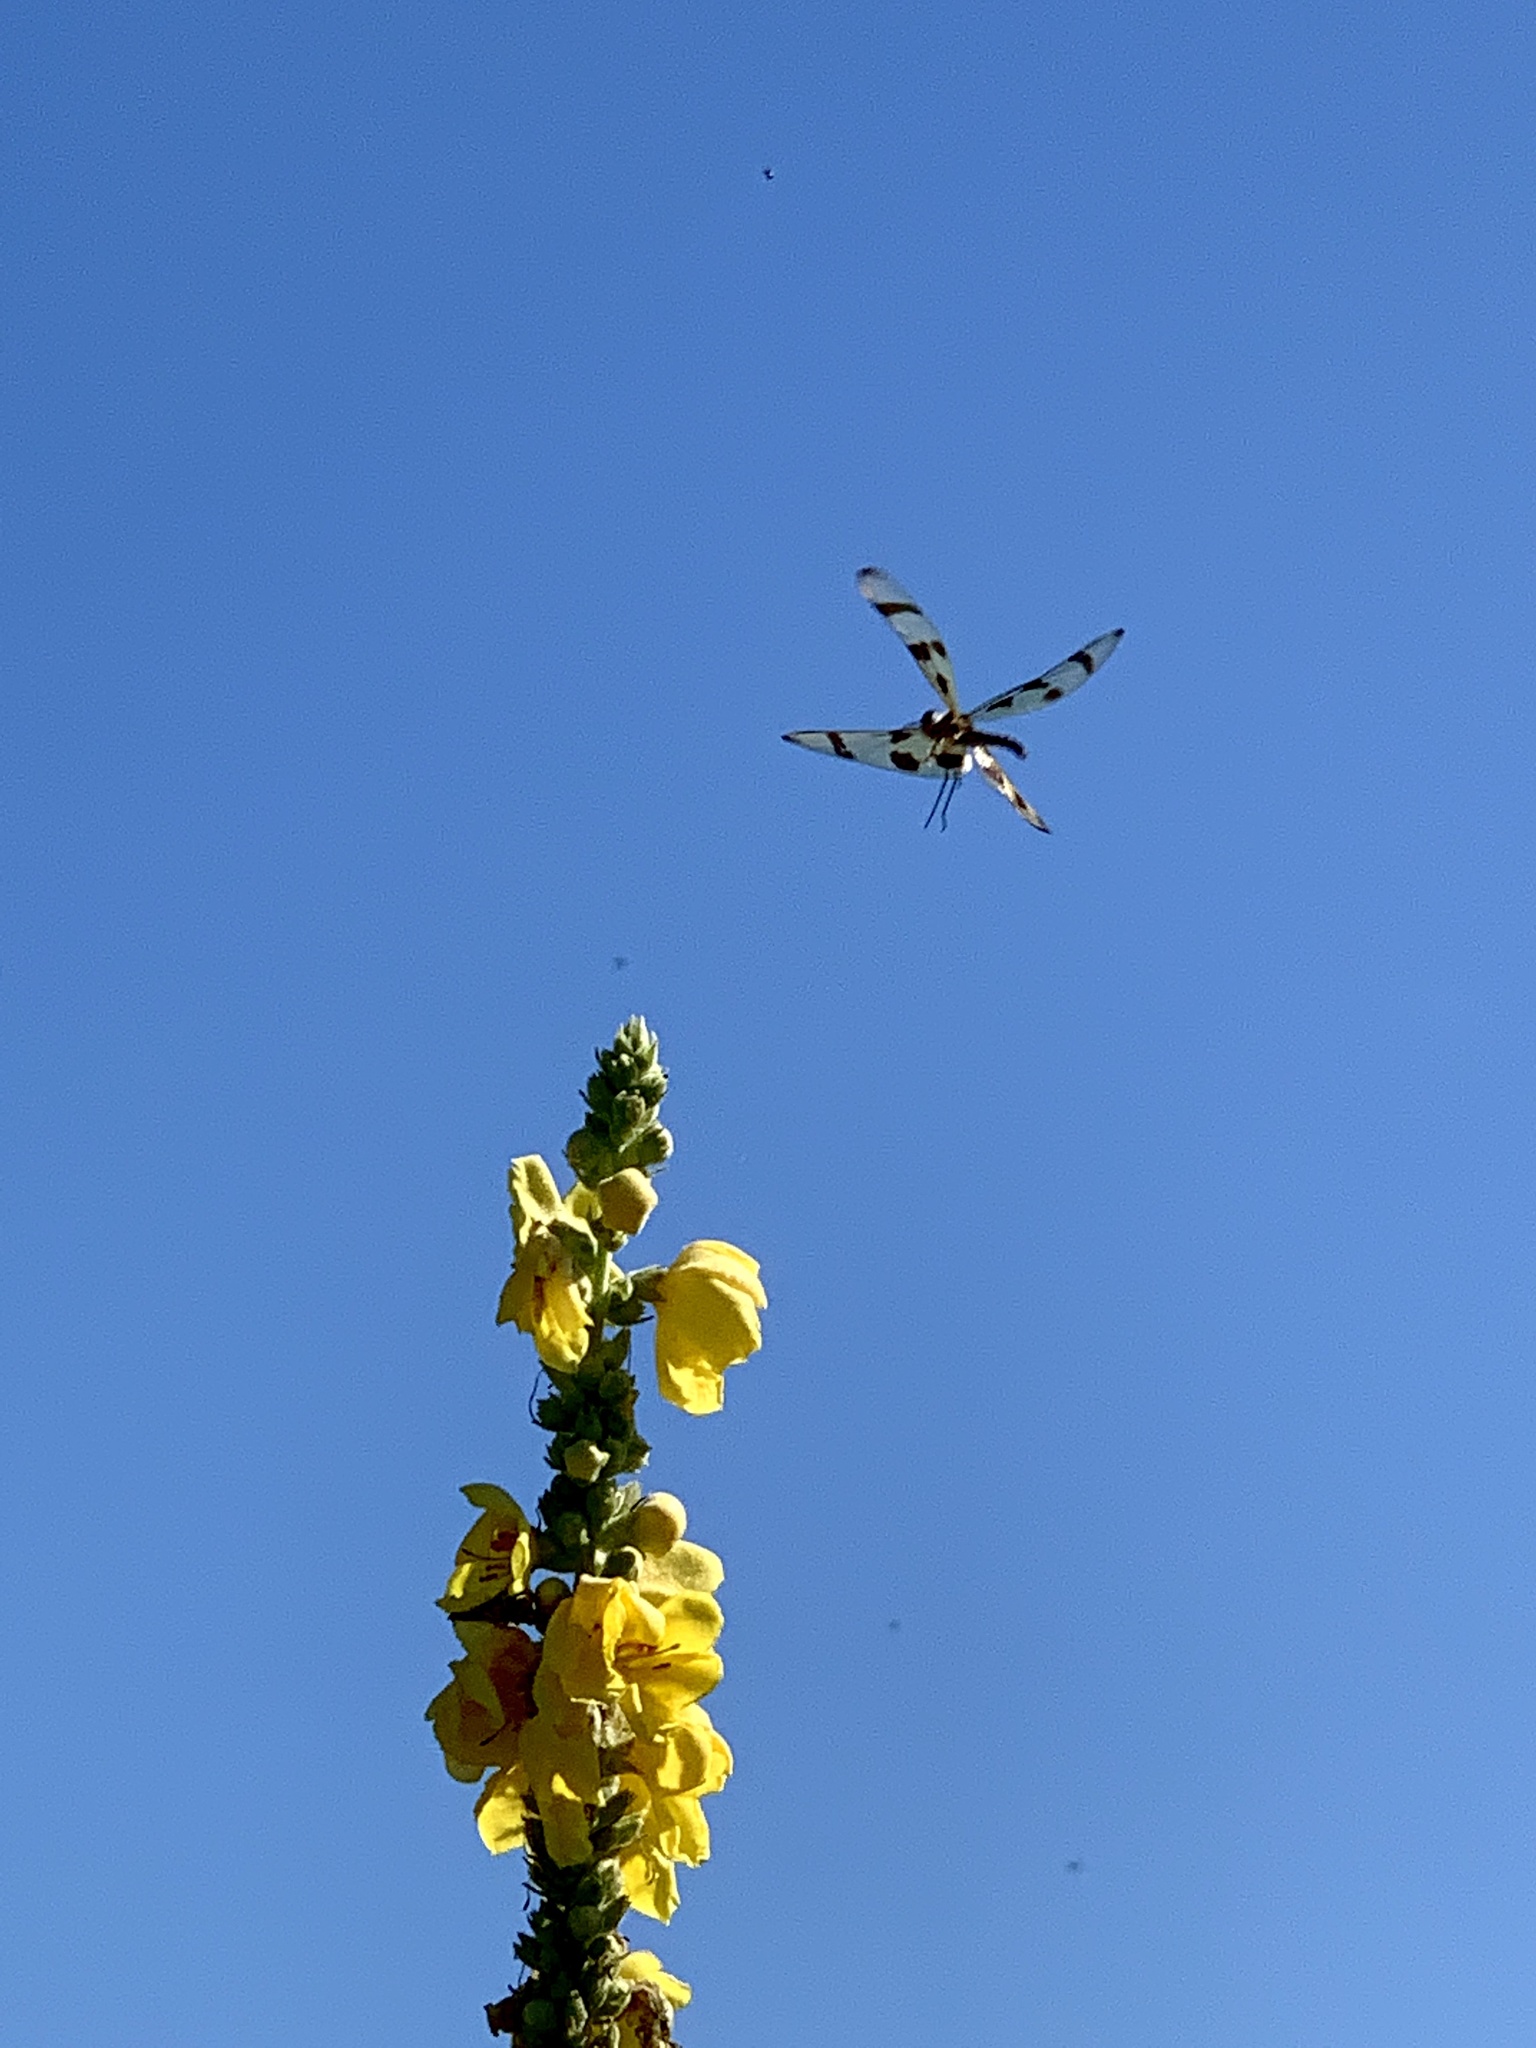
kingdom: Animalia
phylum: Arthropoda
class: Insecta
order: Odonata
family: Libellulidae
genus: Celithemis
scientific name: Celithemis eponina
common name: Halloween pennant
